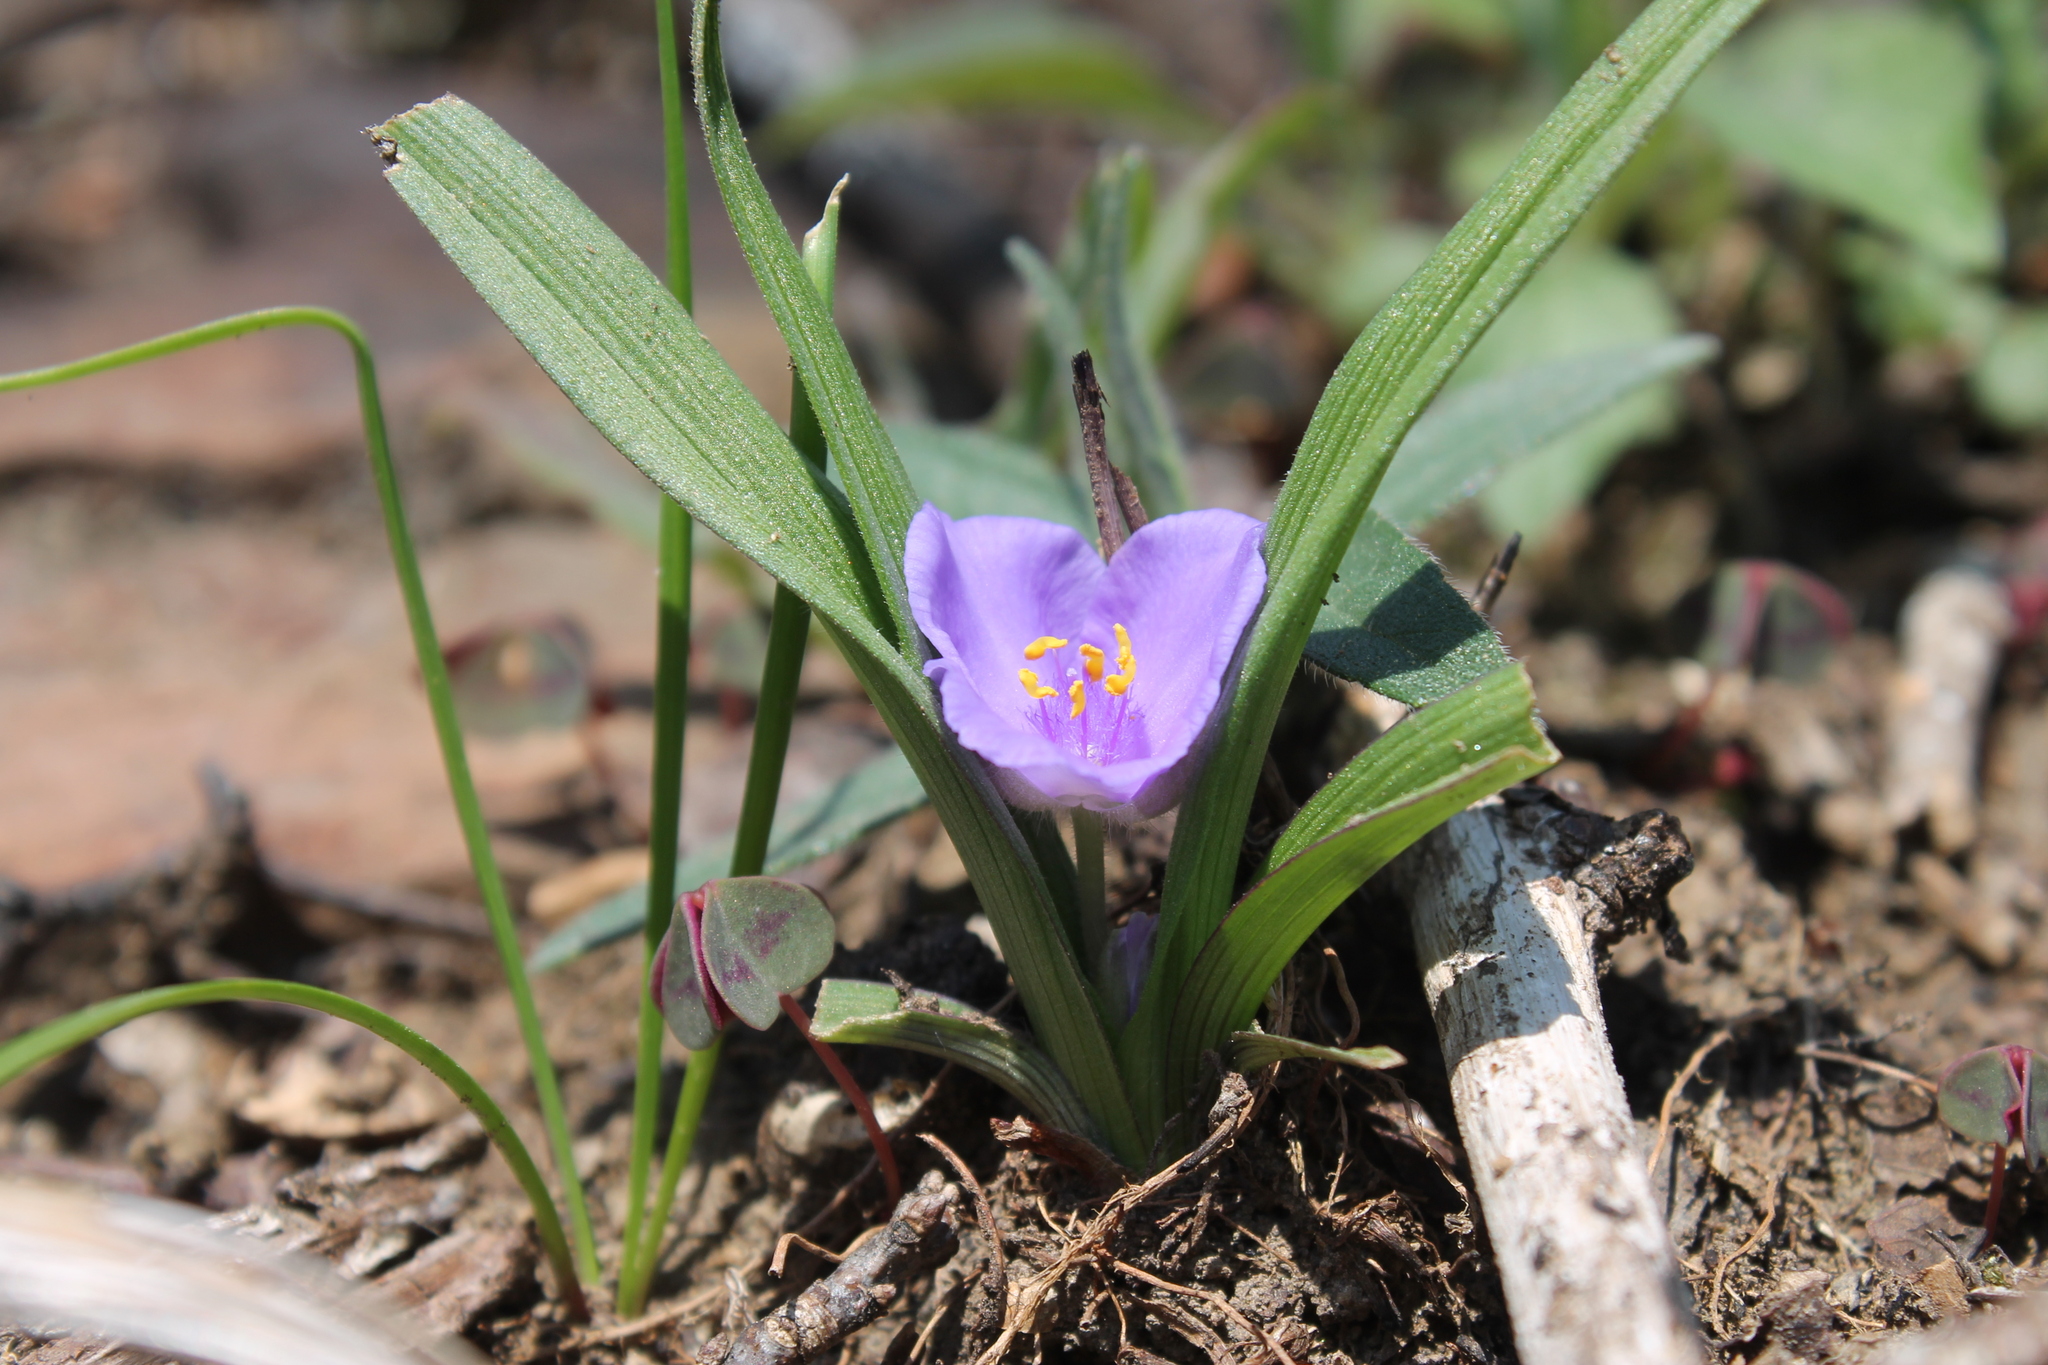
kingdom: Plantae
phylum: Tracheophyta
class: Liliopsida
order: Commelinales
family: Commelinaceae
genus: Tradescantia
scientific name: Tradescantia virginiana
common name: Spiderwort
